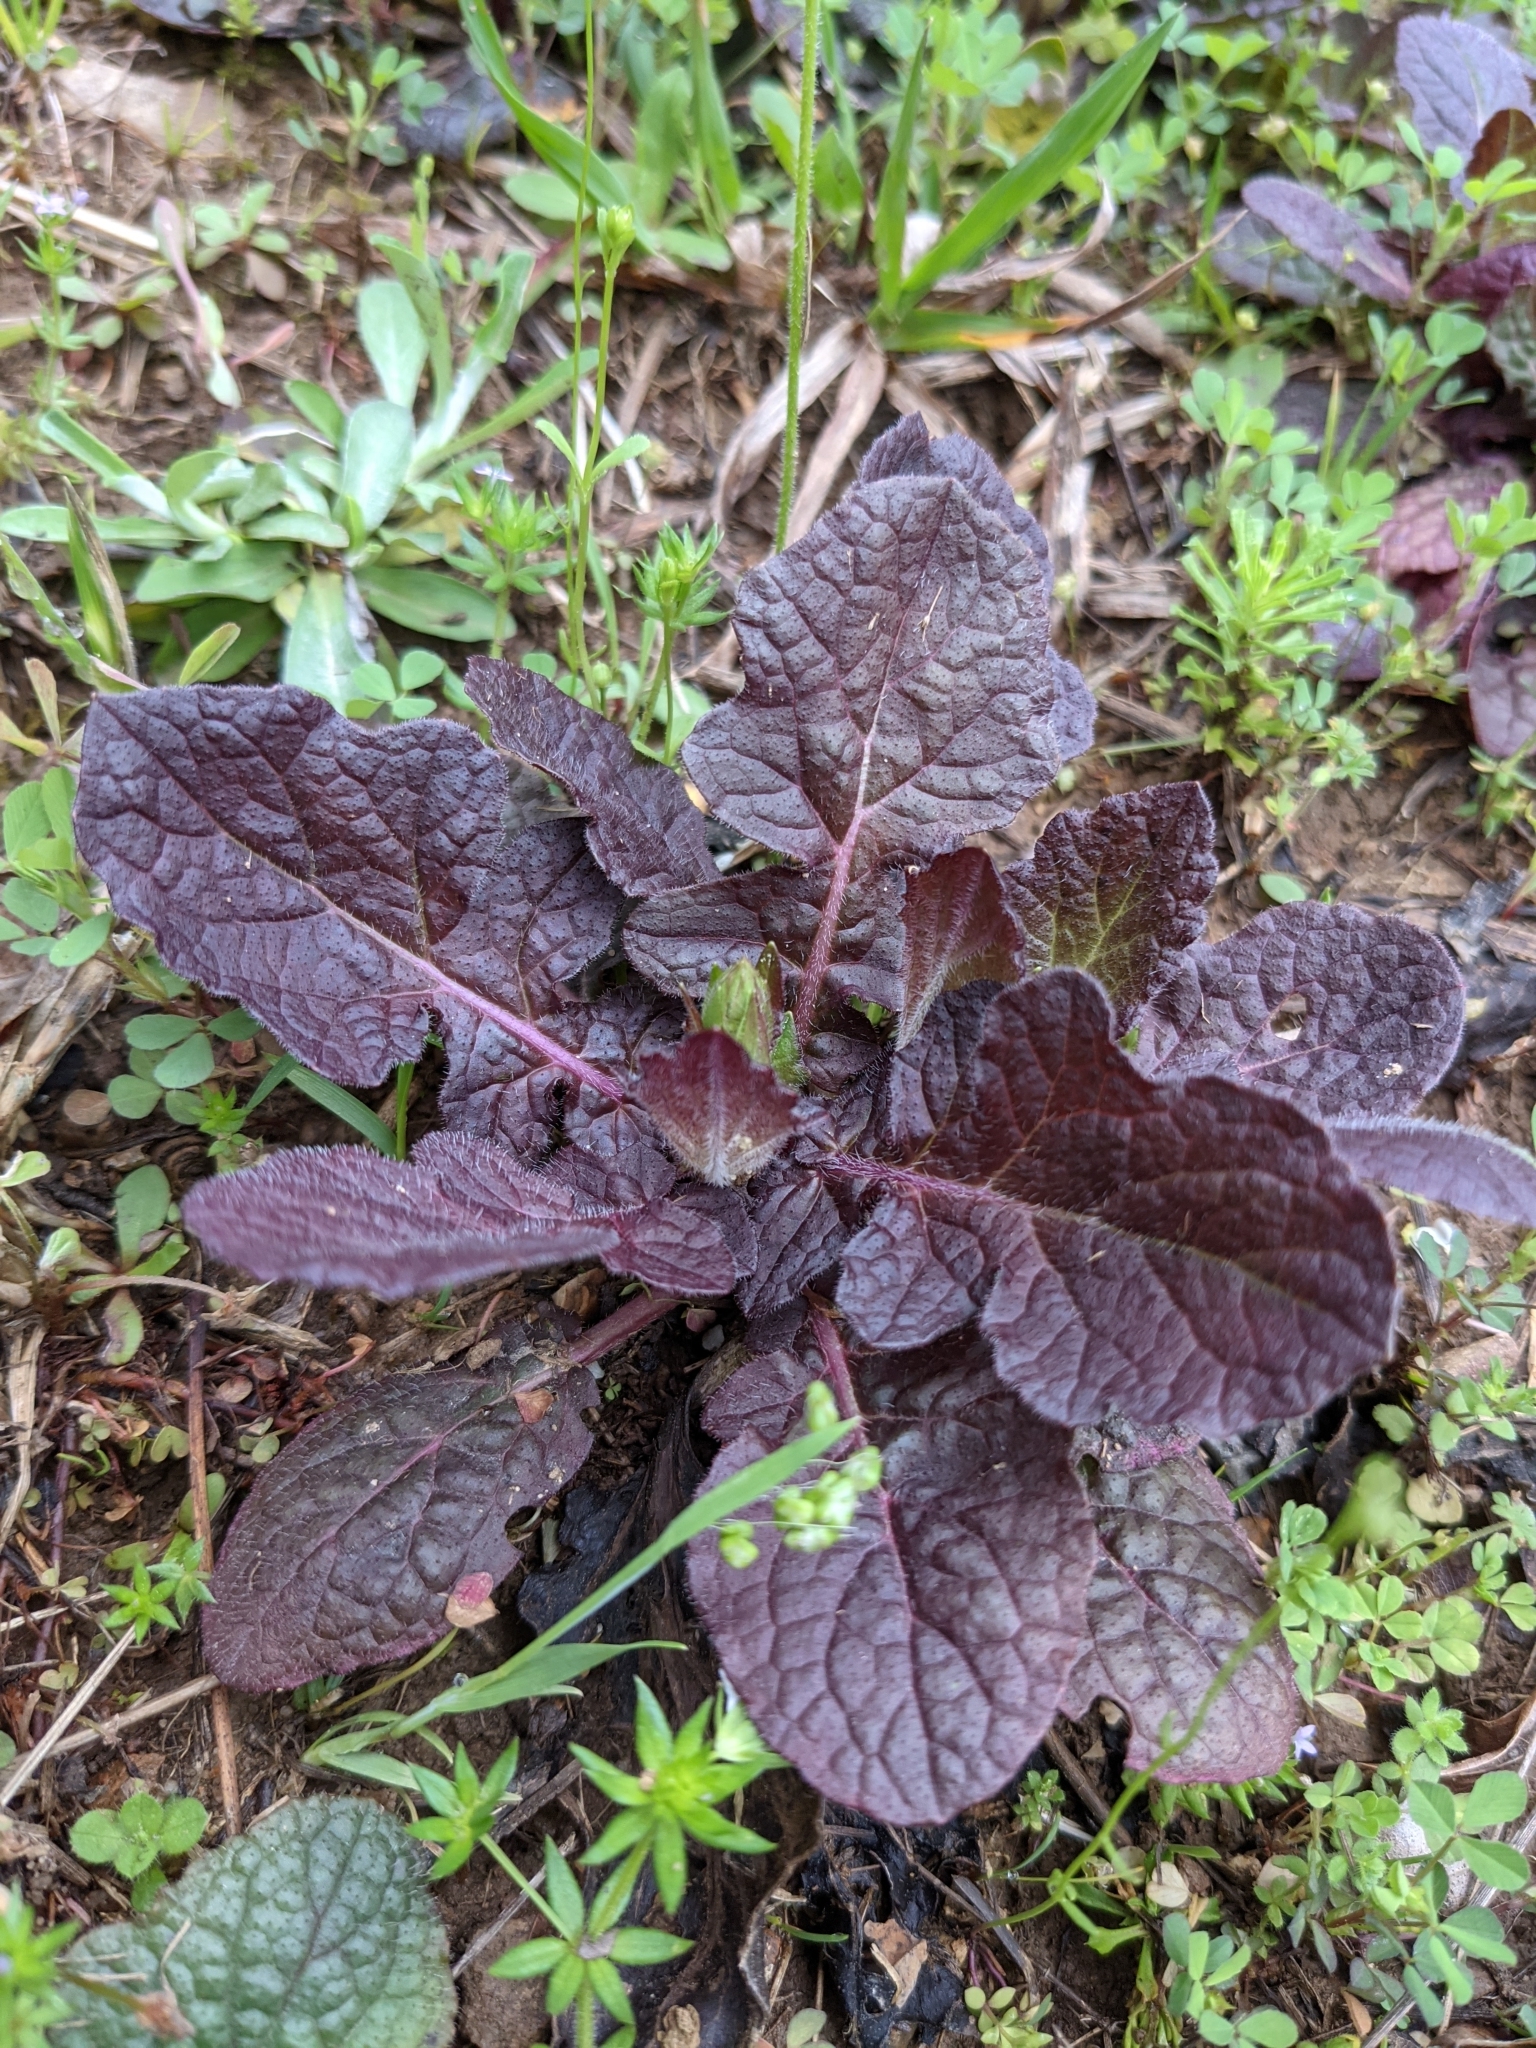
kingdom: Plantae
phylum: Tracheophyta
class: Magnoliopsida
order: Lamiales
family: Lamiaceae
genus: Salvia
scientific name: Salvia lyrata
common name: Cancerweed
